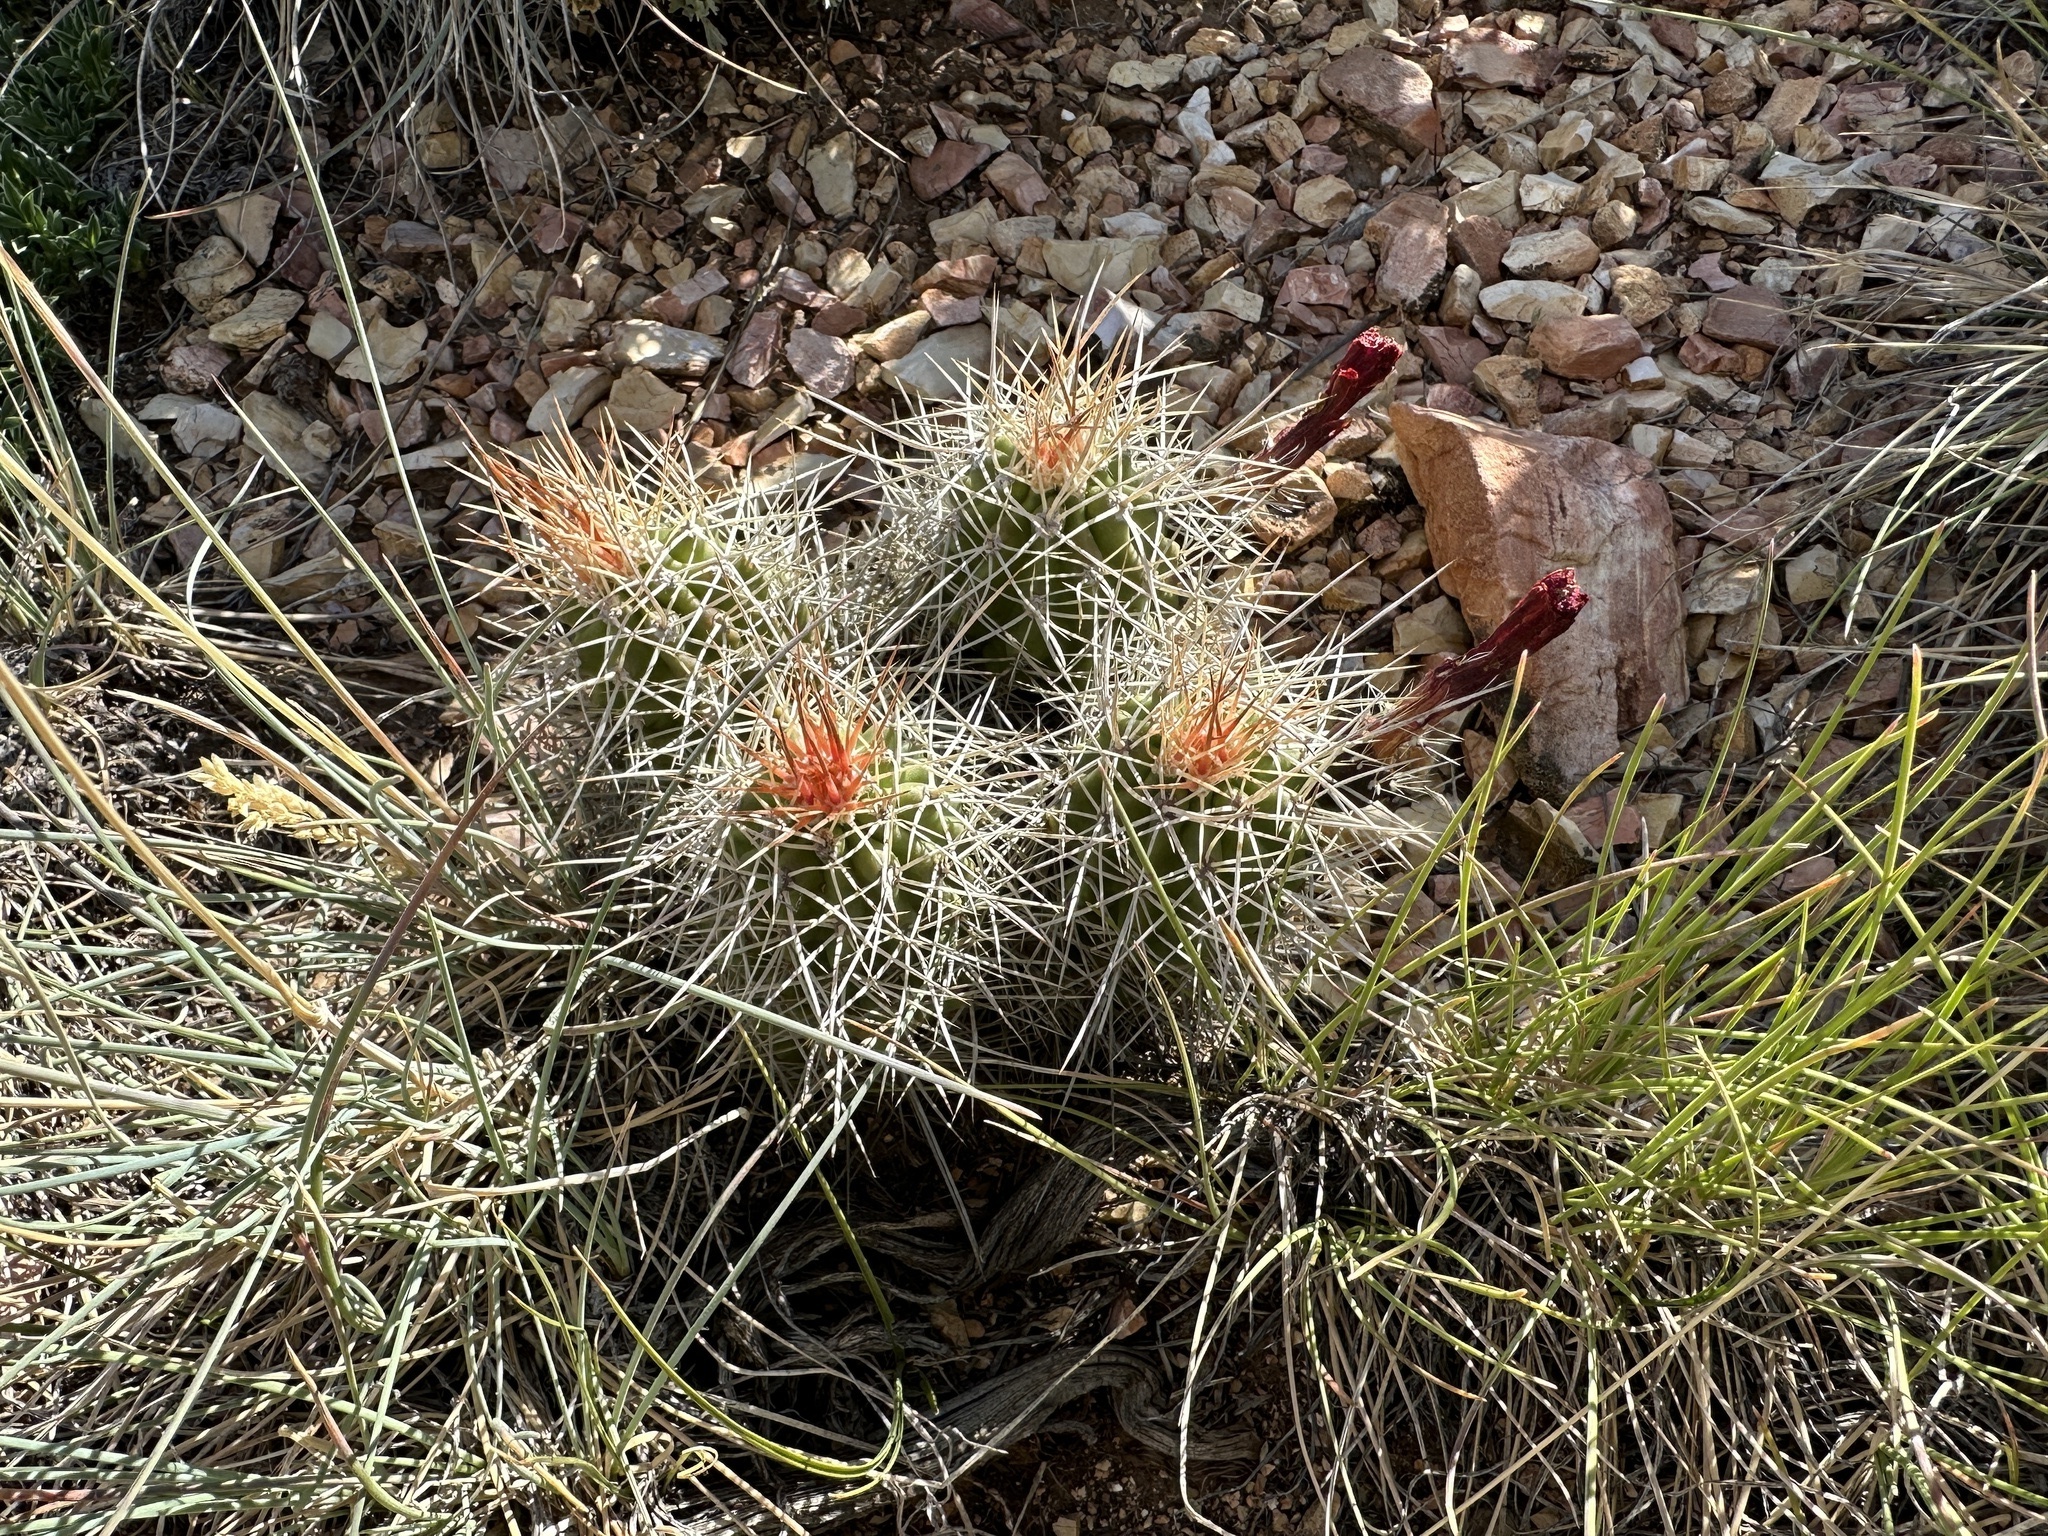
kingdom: Plantae
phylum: Tracheophyta
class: Magnoliopsida
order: Caryophyllales
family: Cactaceae
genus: Echinocereus
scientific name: Echinocereus triglochidiatus
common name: Claretcup hedgehog
